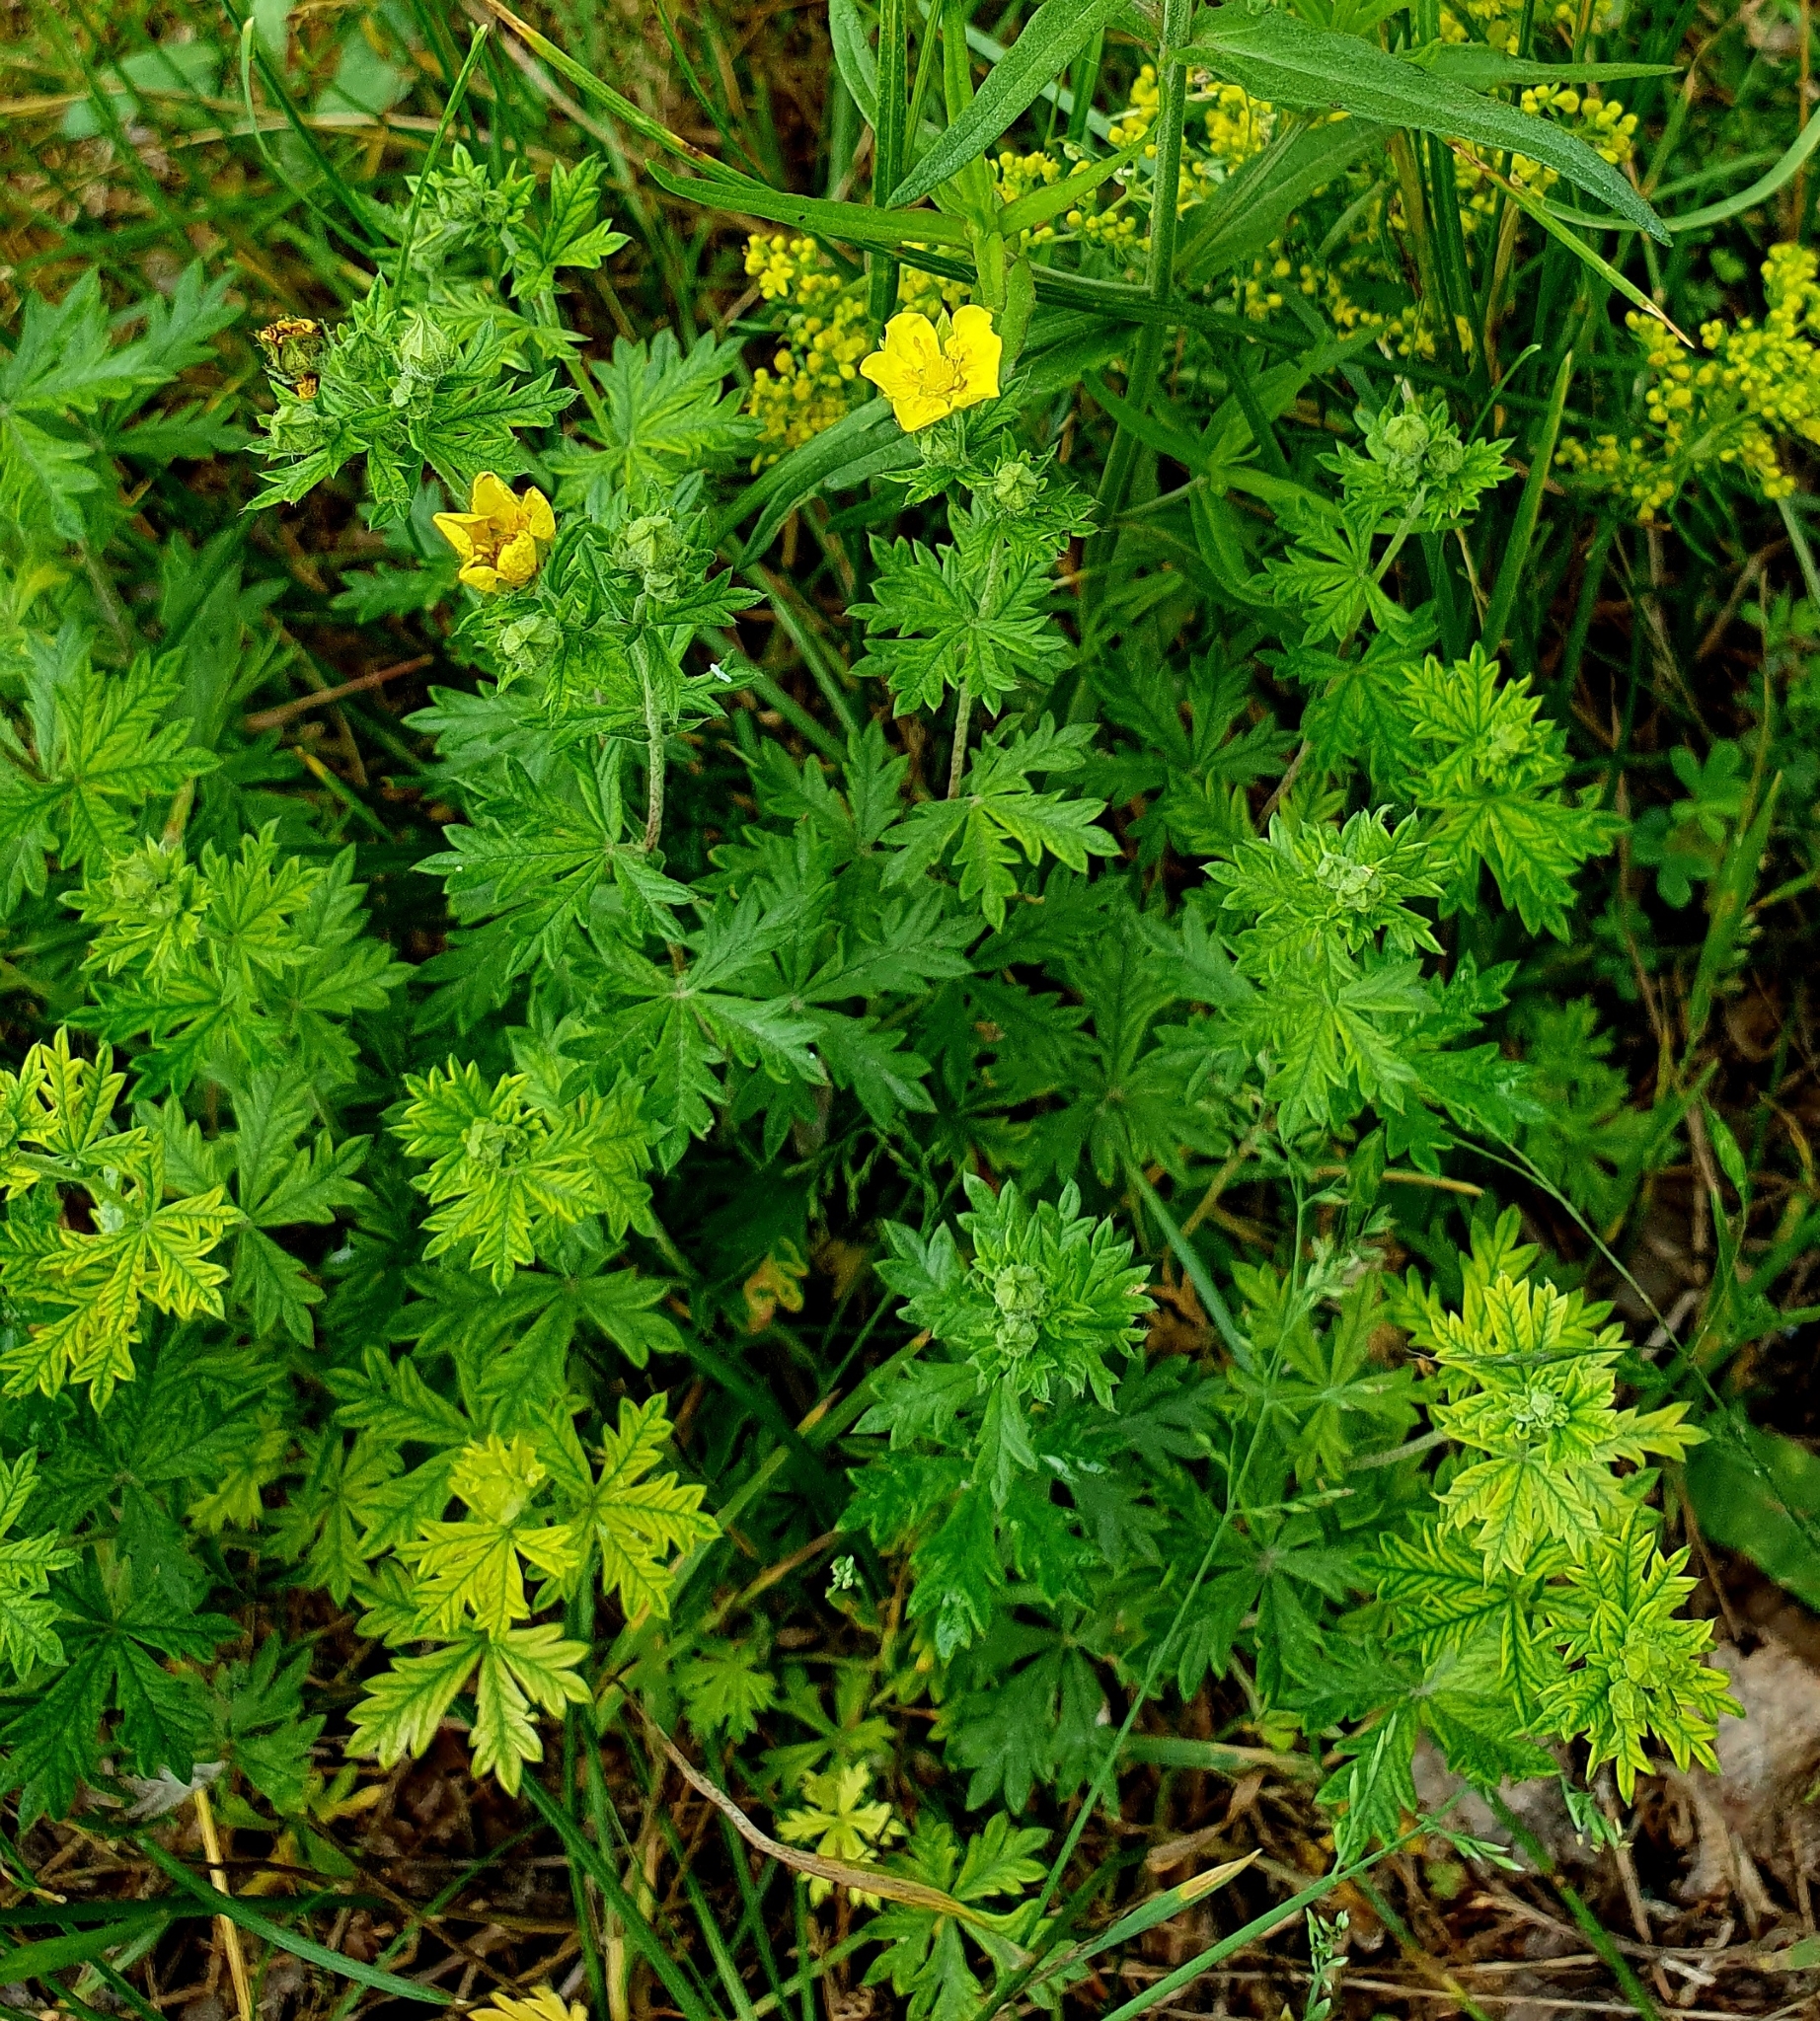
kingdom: Plantae
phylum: Tracheophyta
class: Magnoliopsida
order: Rosales
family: Rosaceae
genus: Potentilla
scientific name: Potentilla argentea
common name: Hoary cinquefoil
